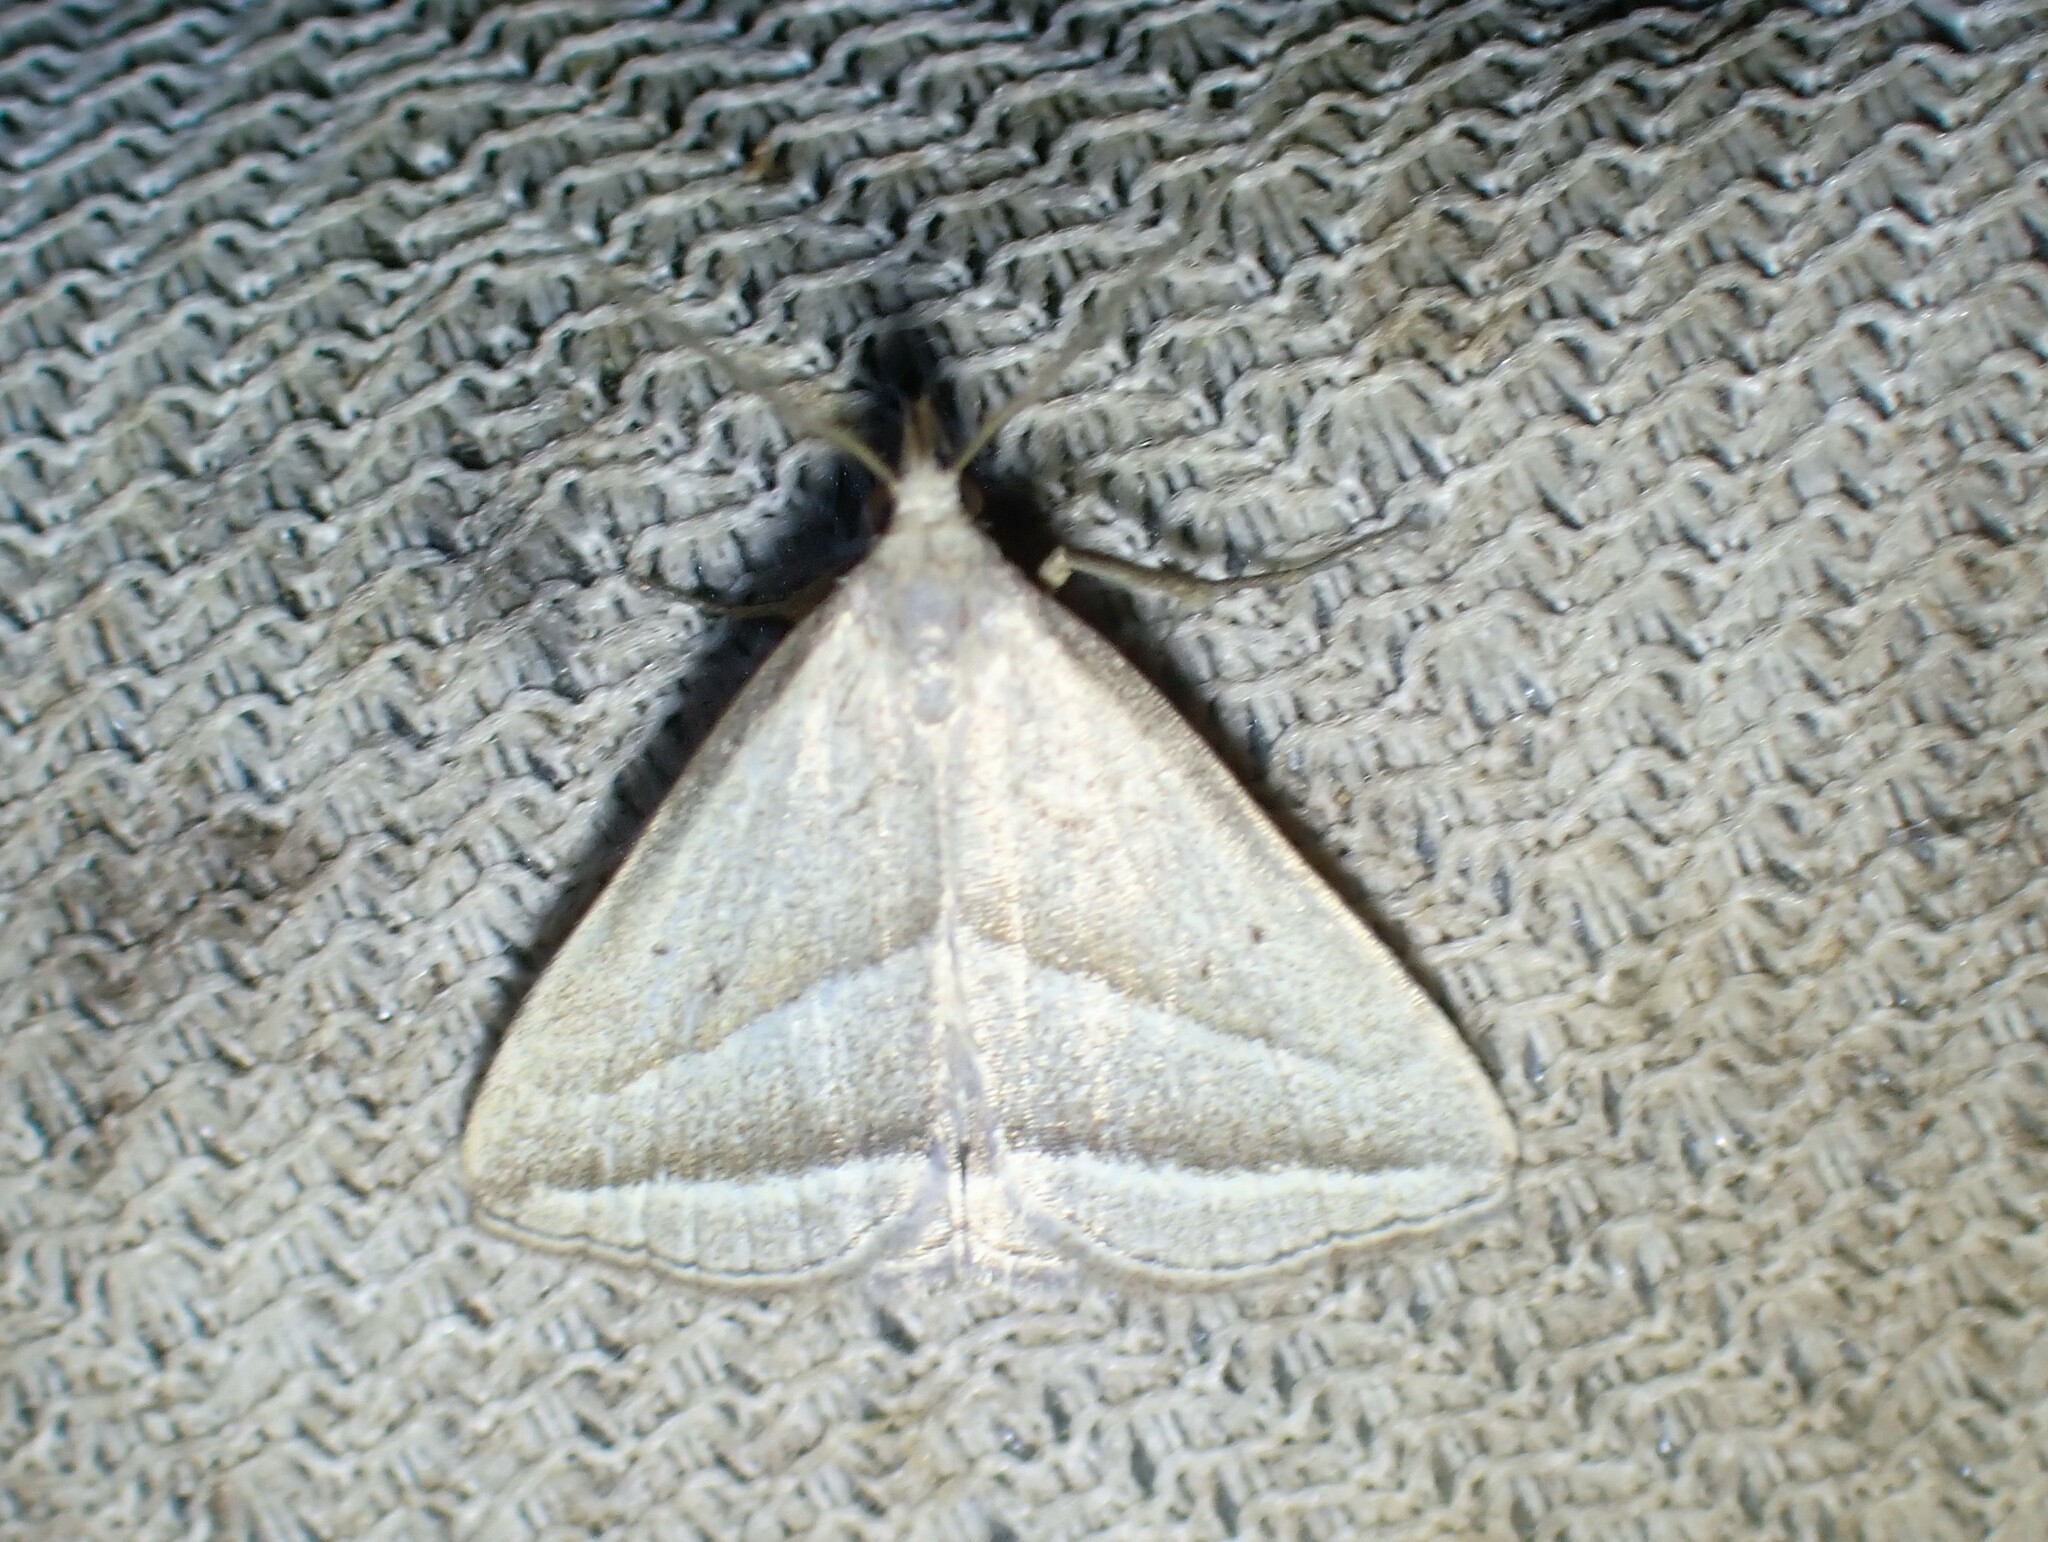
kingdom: Animalia
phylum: Arthropoda
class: Insecta
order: Lepidoptera
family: Erebidae
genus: Macrochilo
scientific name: Macrochilo absorptalis
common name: Slant-lined owlet
